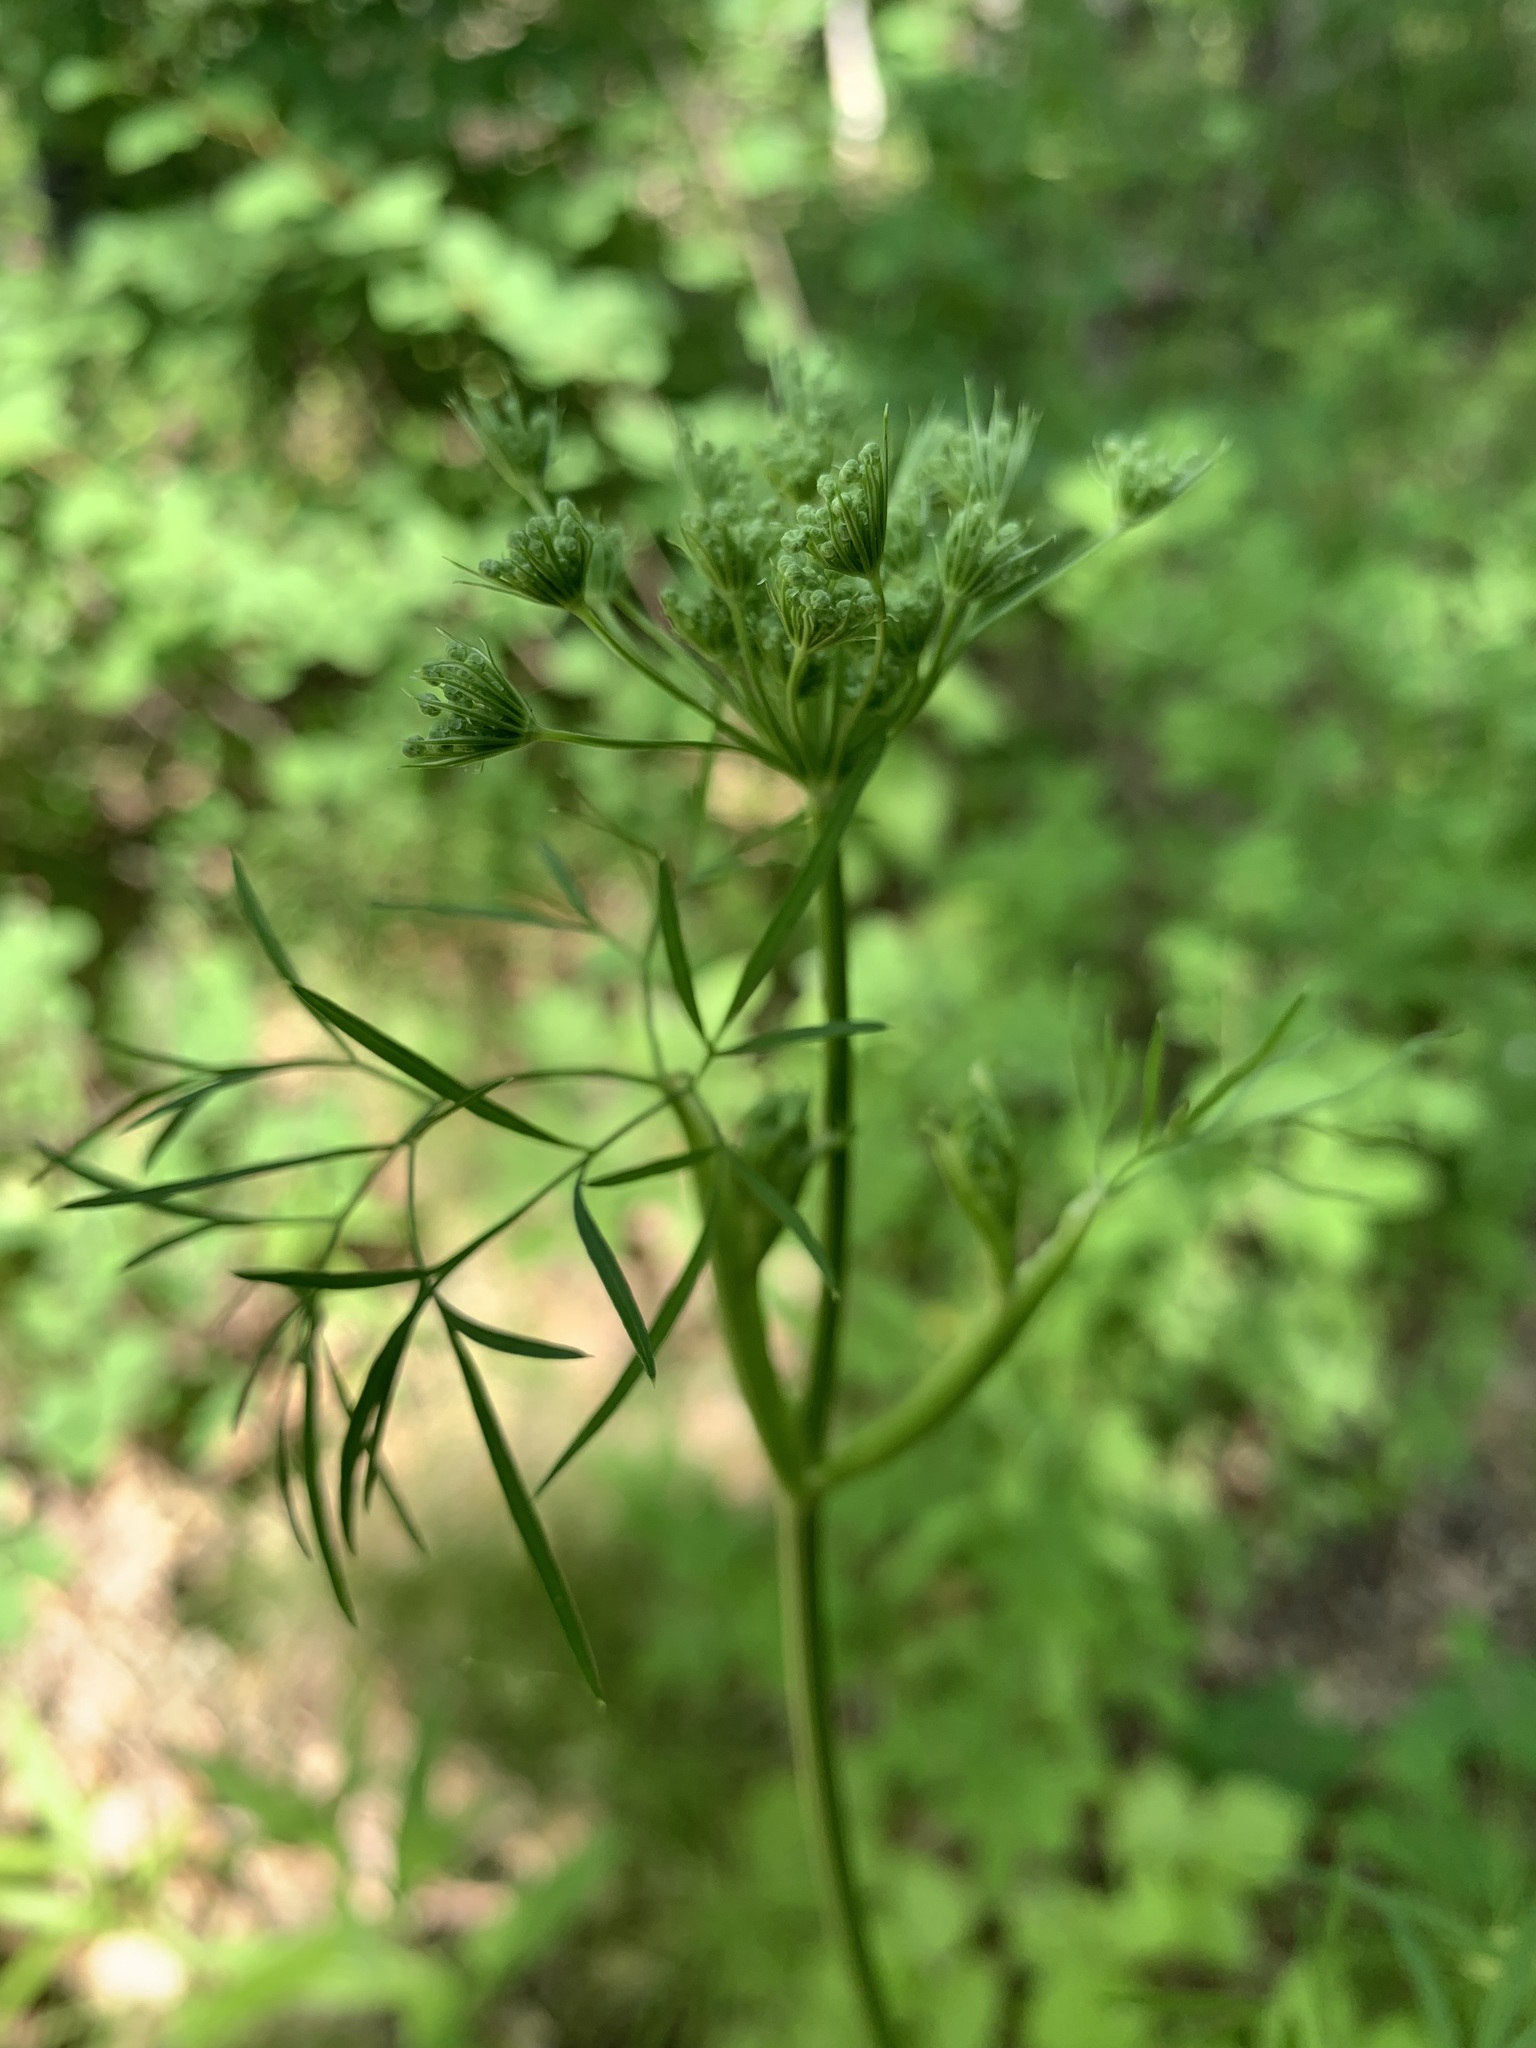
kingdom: Plantae
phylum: Tracheophyta
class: Magnoliopsida
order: Apiales
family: Apiaceae
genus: Cenolophium
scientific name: Cenolophium fischeri
